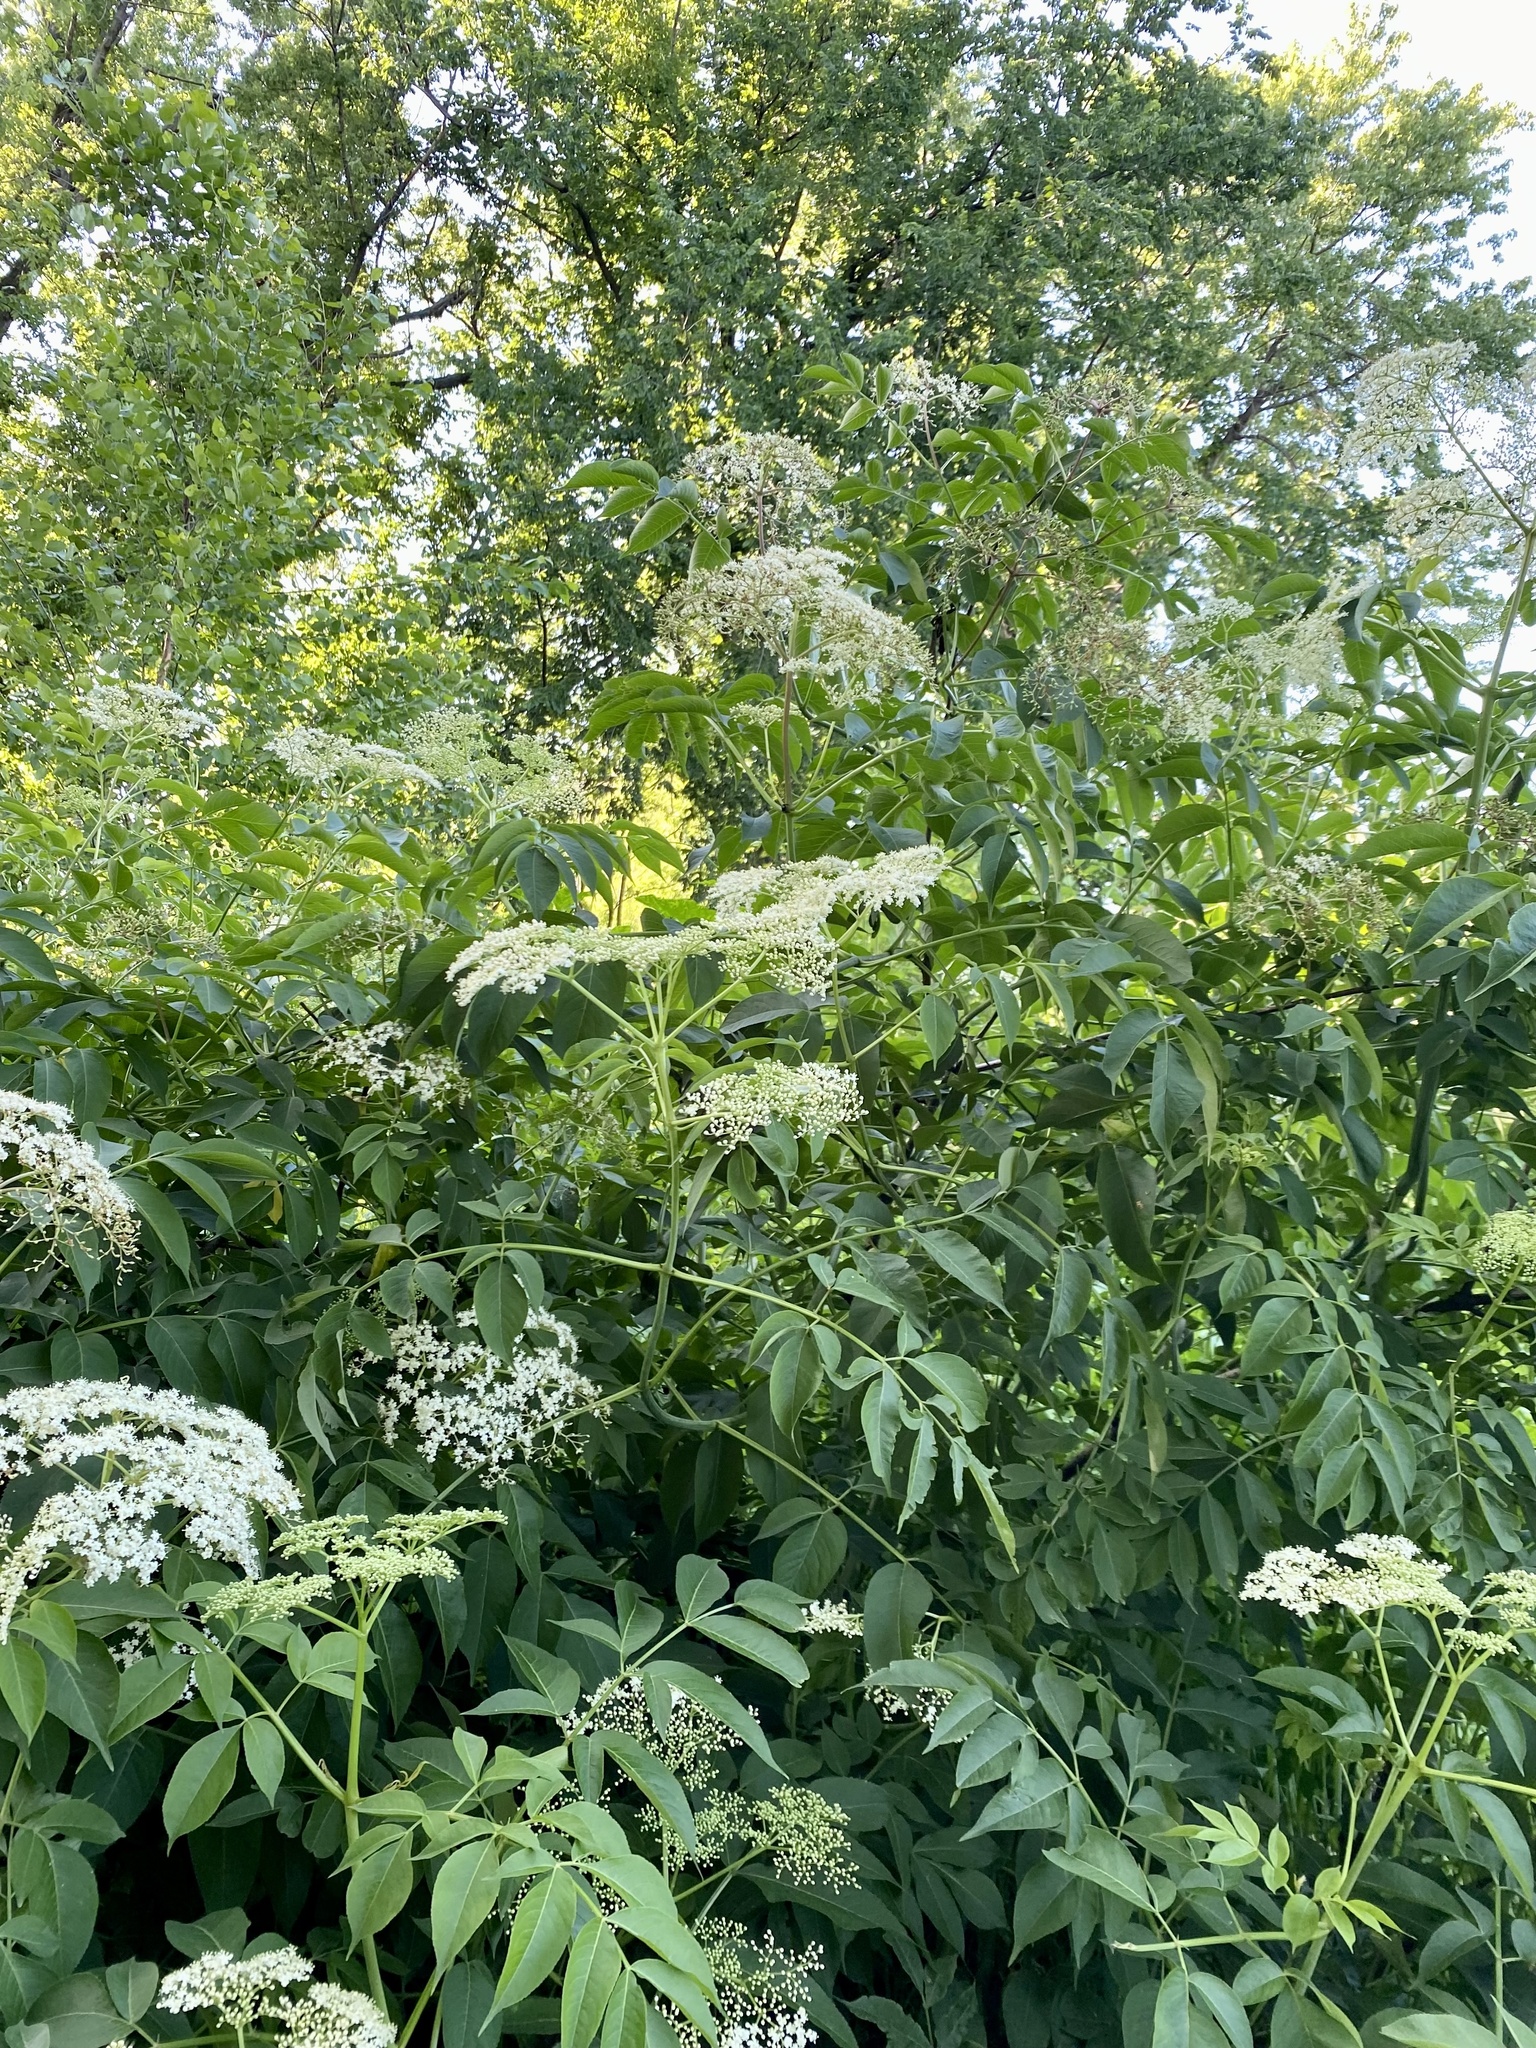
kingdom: Plantae
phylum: Tracheophyta
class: Magnoliopsida
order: Dipsacales
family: Viburnaceae
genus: Sambucus
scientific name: Sambucus canadensis
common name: American elder
